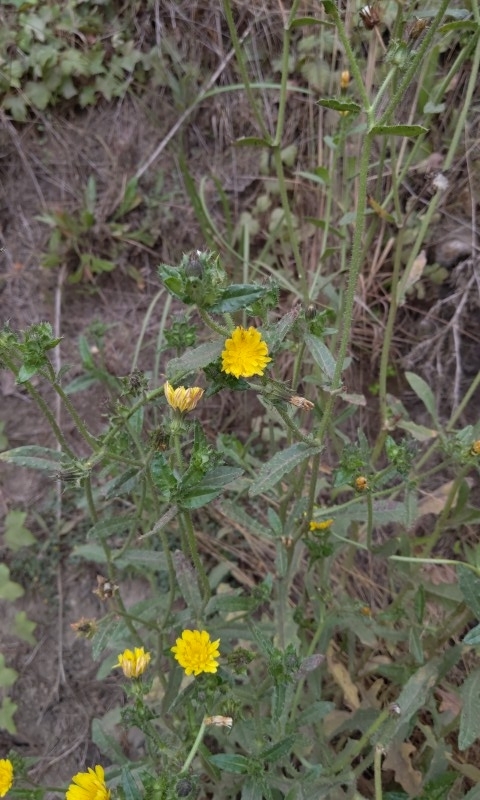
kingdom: Plantae
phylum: Tracheophyta
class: Magnoliopsida
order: Asterales
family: Asteraceae
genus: Helminthotheca
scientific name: Helminthotheca echioides
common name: Ox-tongue
